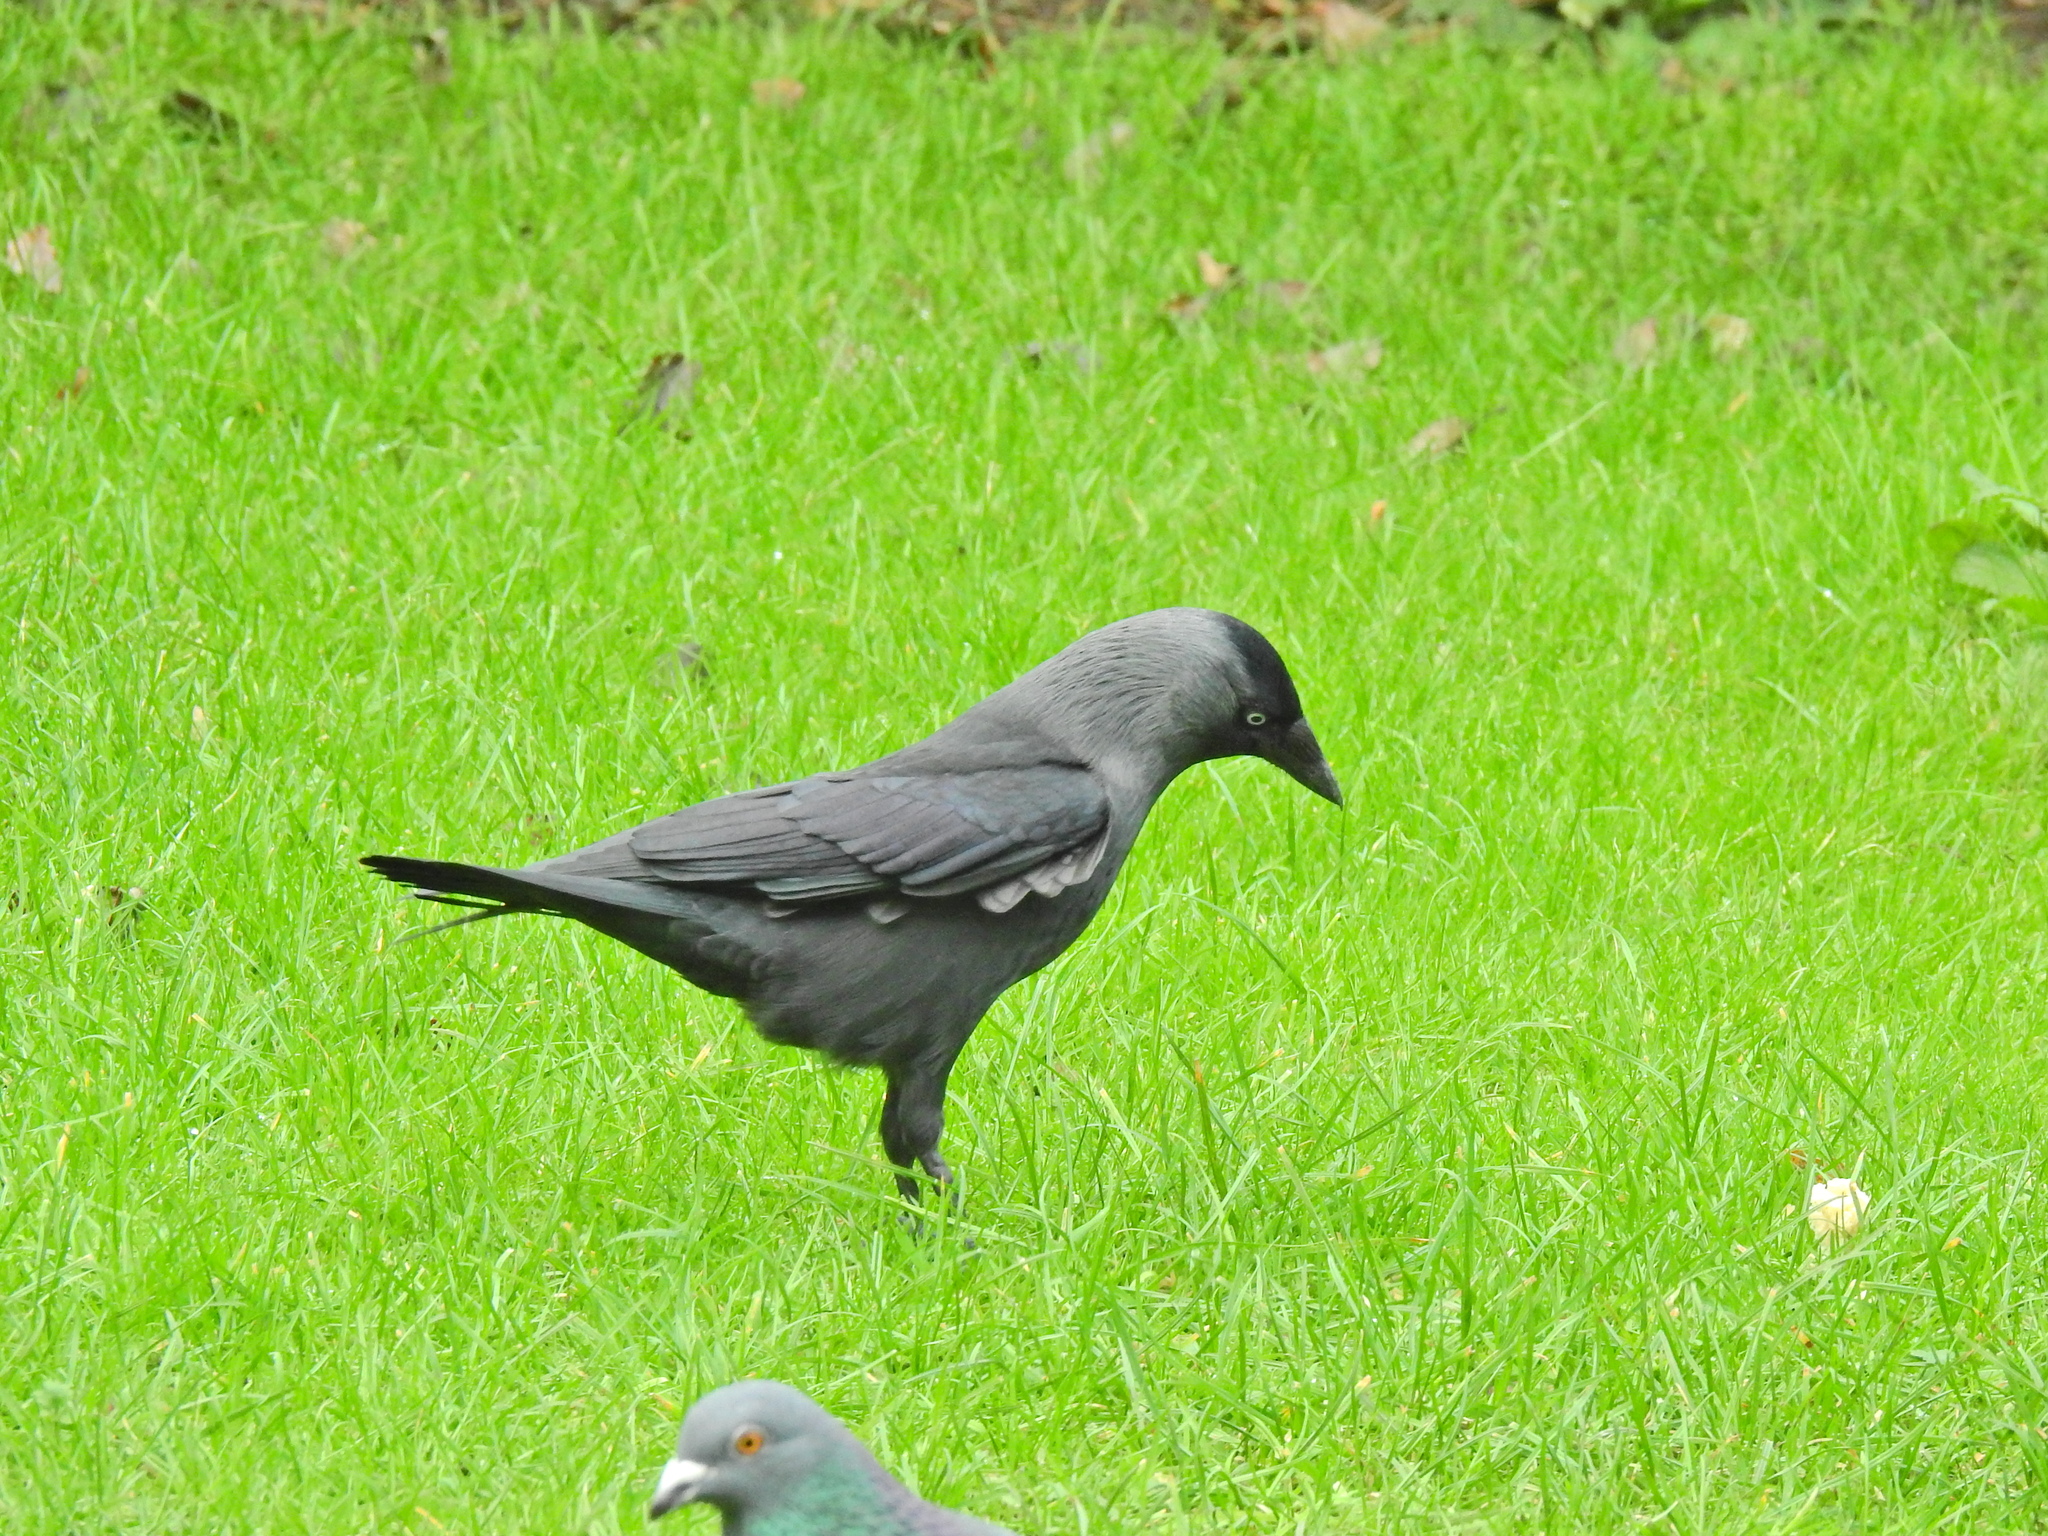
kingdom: Animalia
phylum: Chordata
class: Aves
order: Passeriformes
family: Corvidae
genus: Coloeus
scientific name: Coloeus monedula
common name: Western jackdaw
